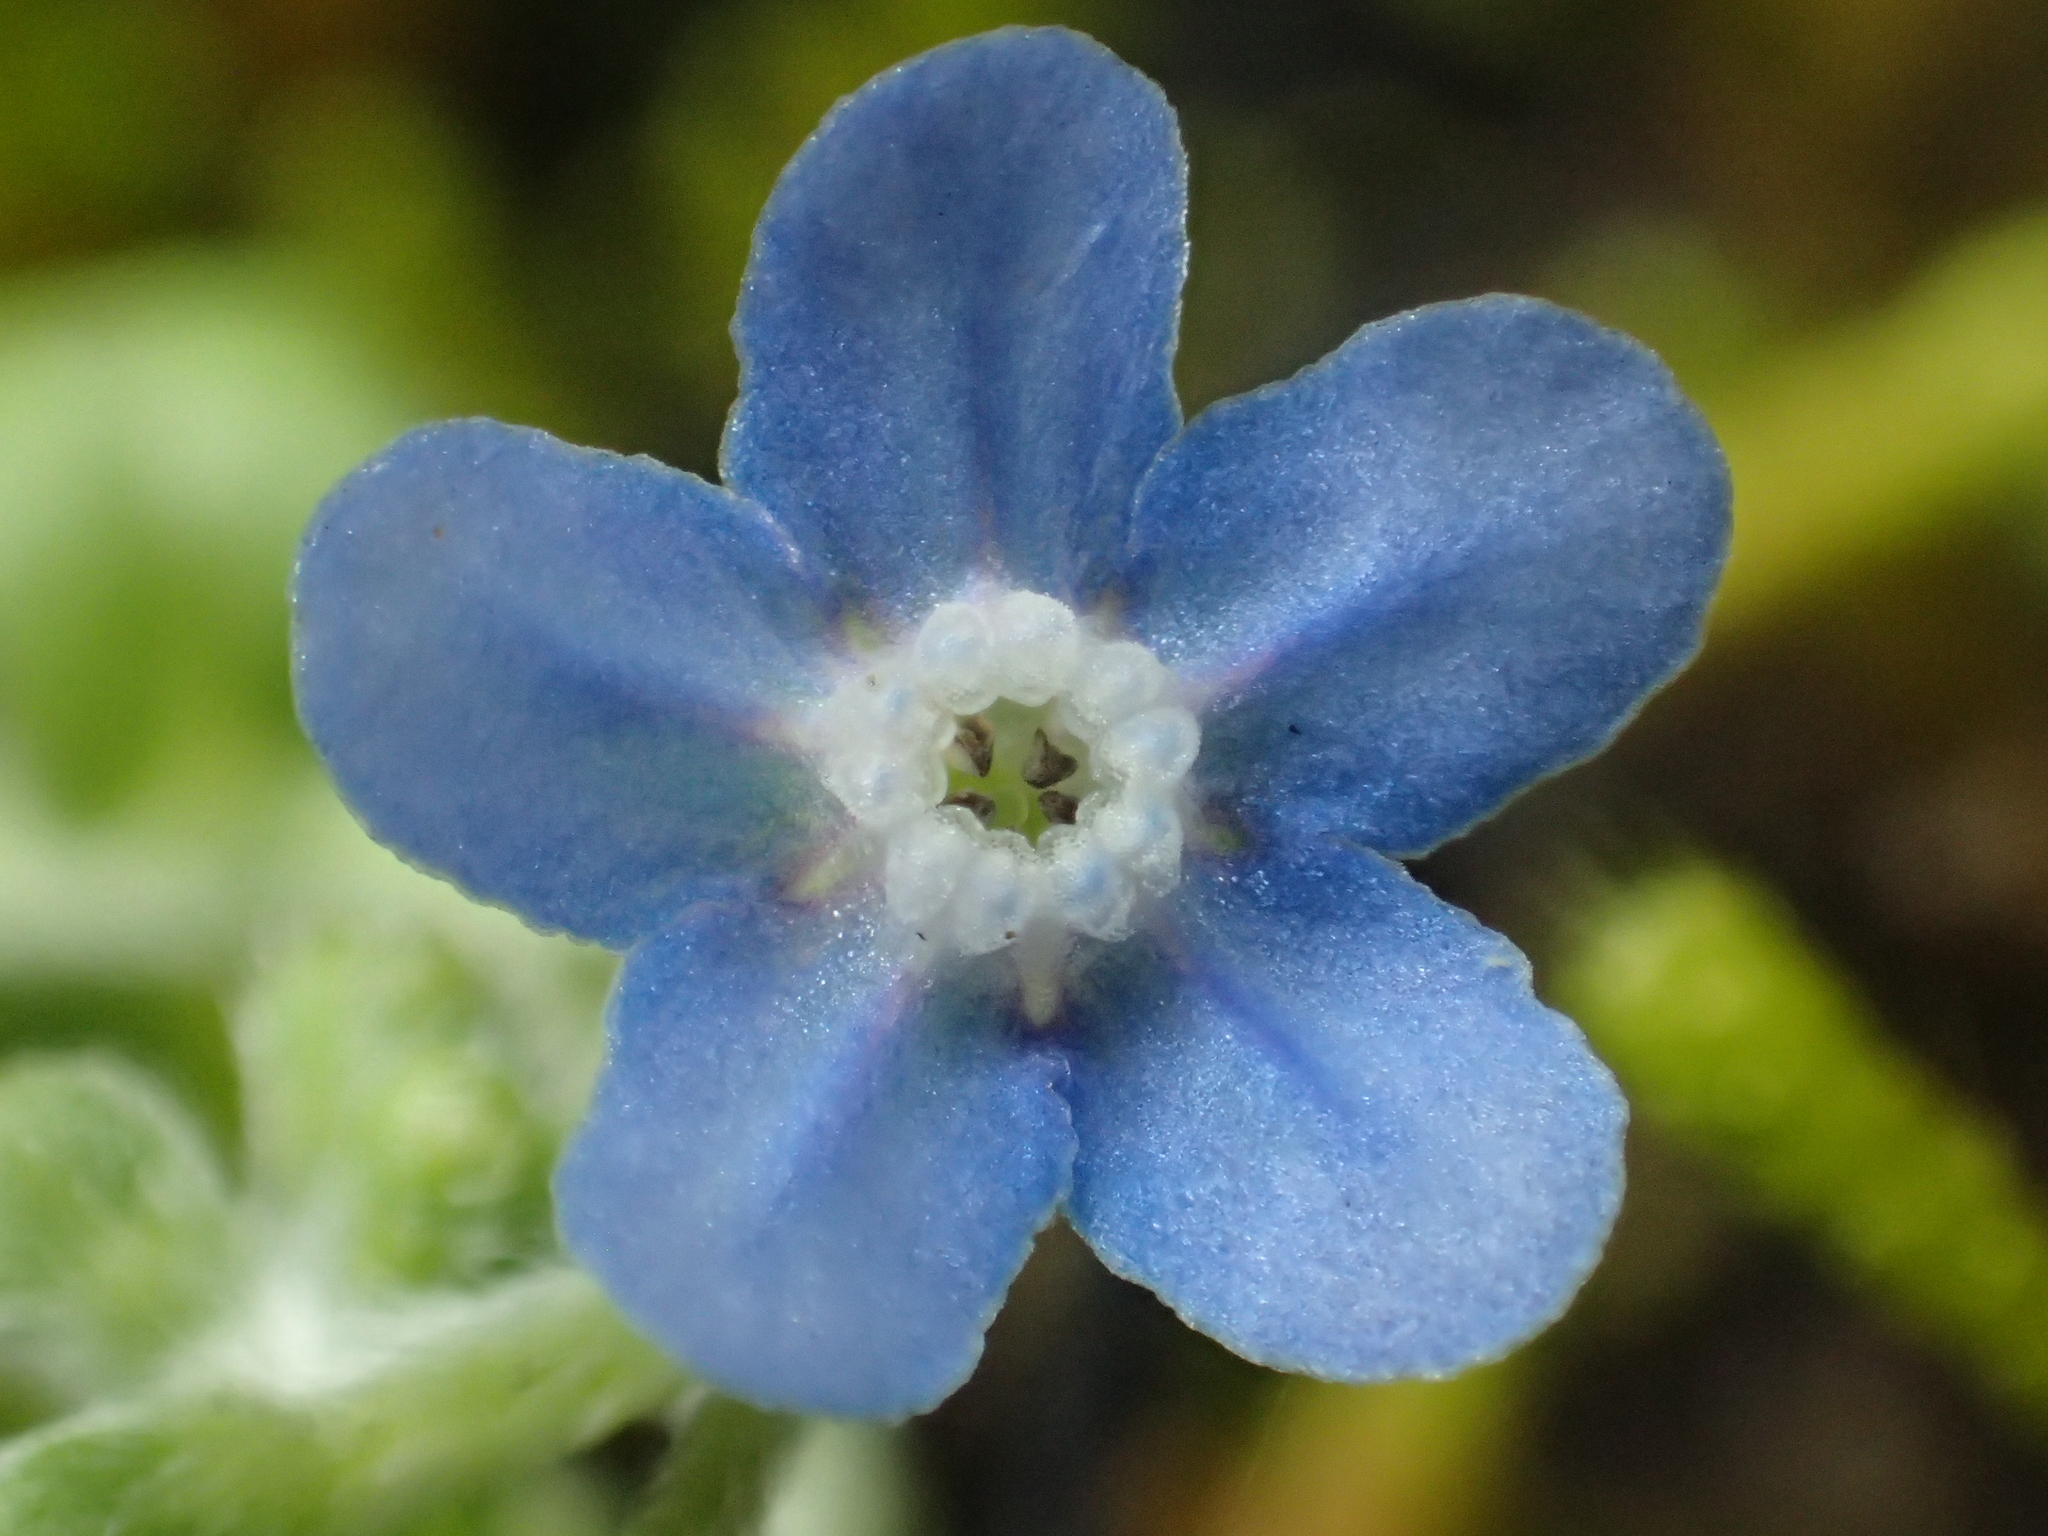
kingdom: Plantae
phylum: Tracheophyta
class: Magnoliopsida
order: Boraginales
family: Boraginaceae
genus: Cynoglossum
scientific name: Cynoglossum zeylanicum
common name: Ceylon hound's tongue
